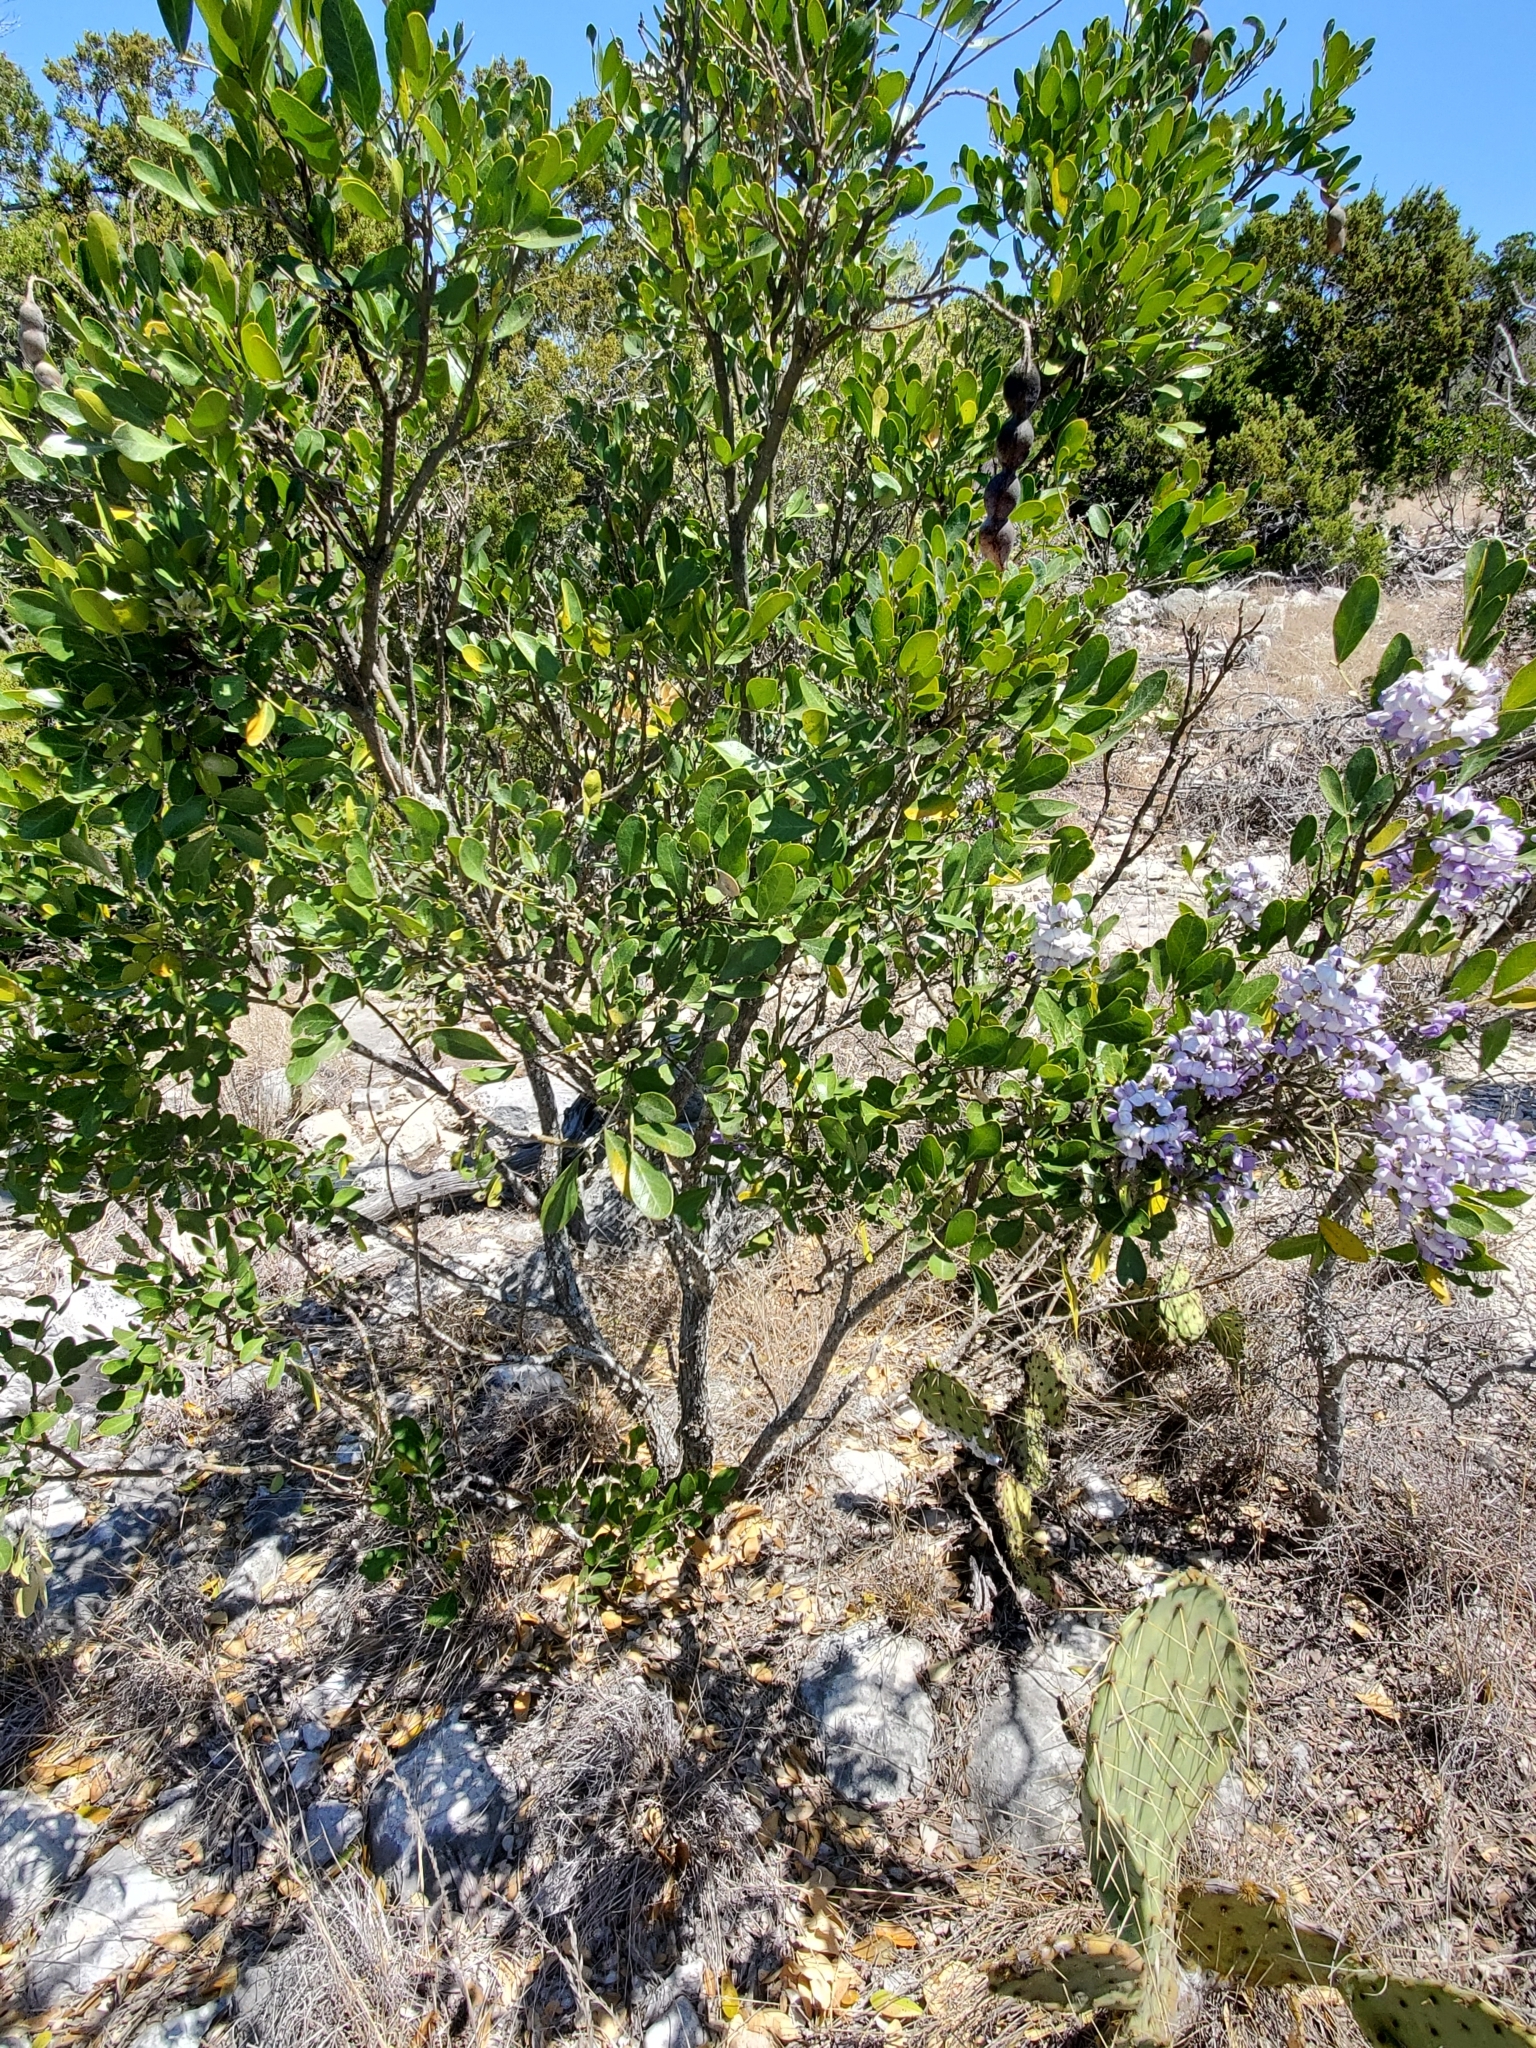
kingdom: Plantae
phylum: Tracheophyta
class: Magnoliopsida
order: Fabales
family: Fabaceae
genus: Dermatophyllum
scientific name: Dermatophyllum secundiflorum
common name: Texas-mountain-laurel
